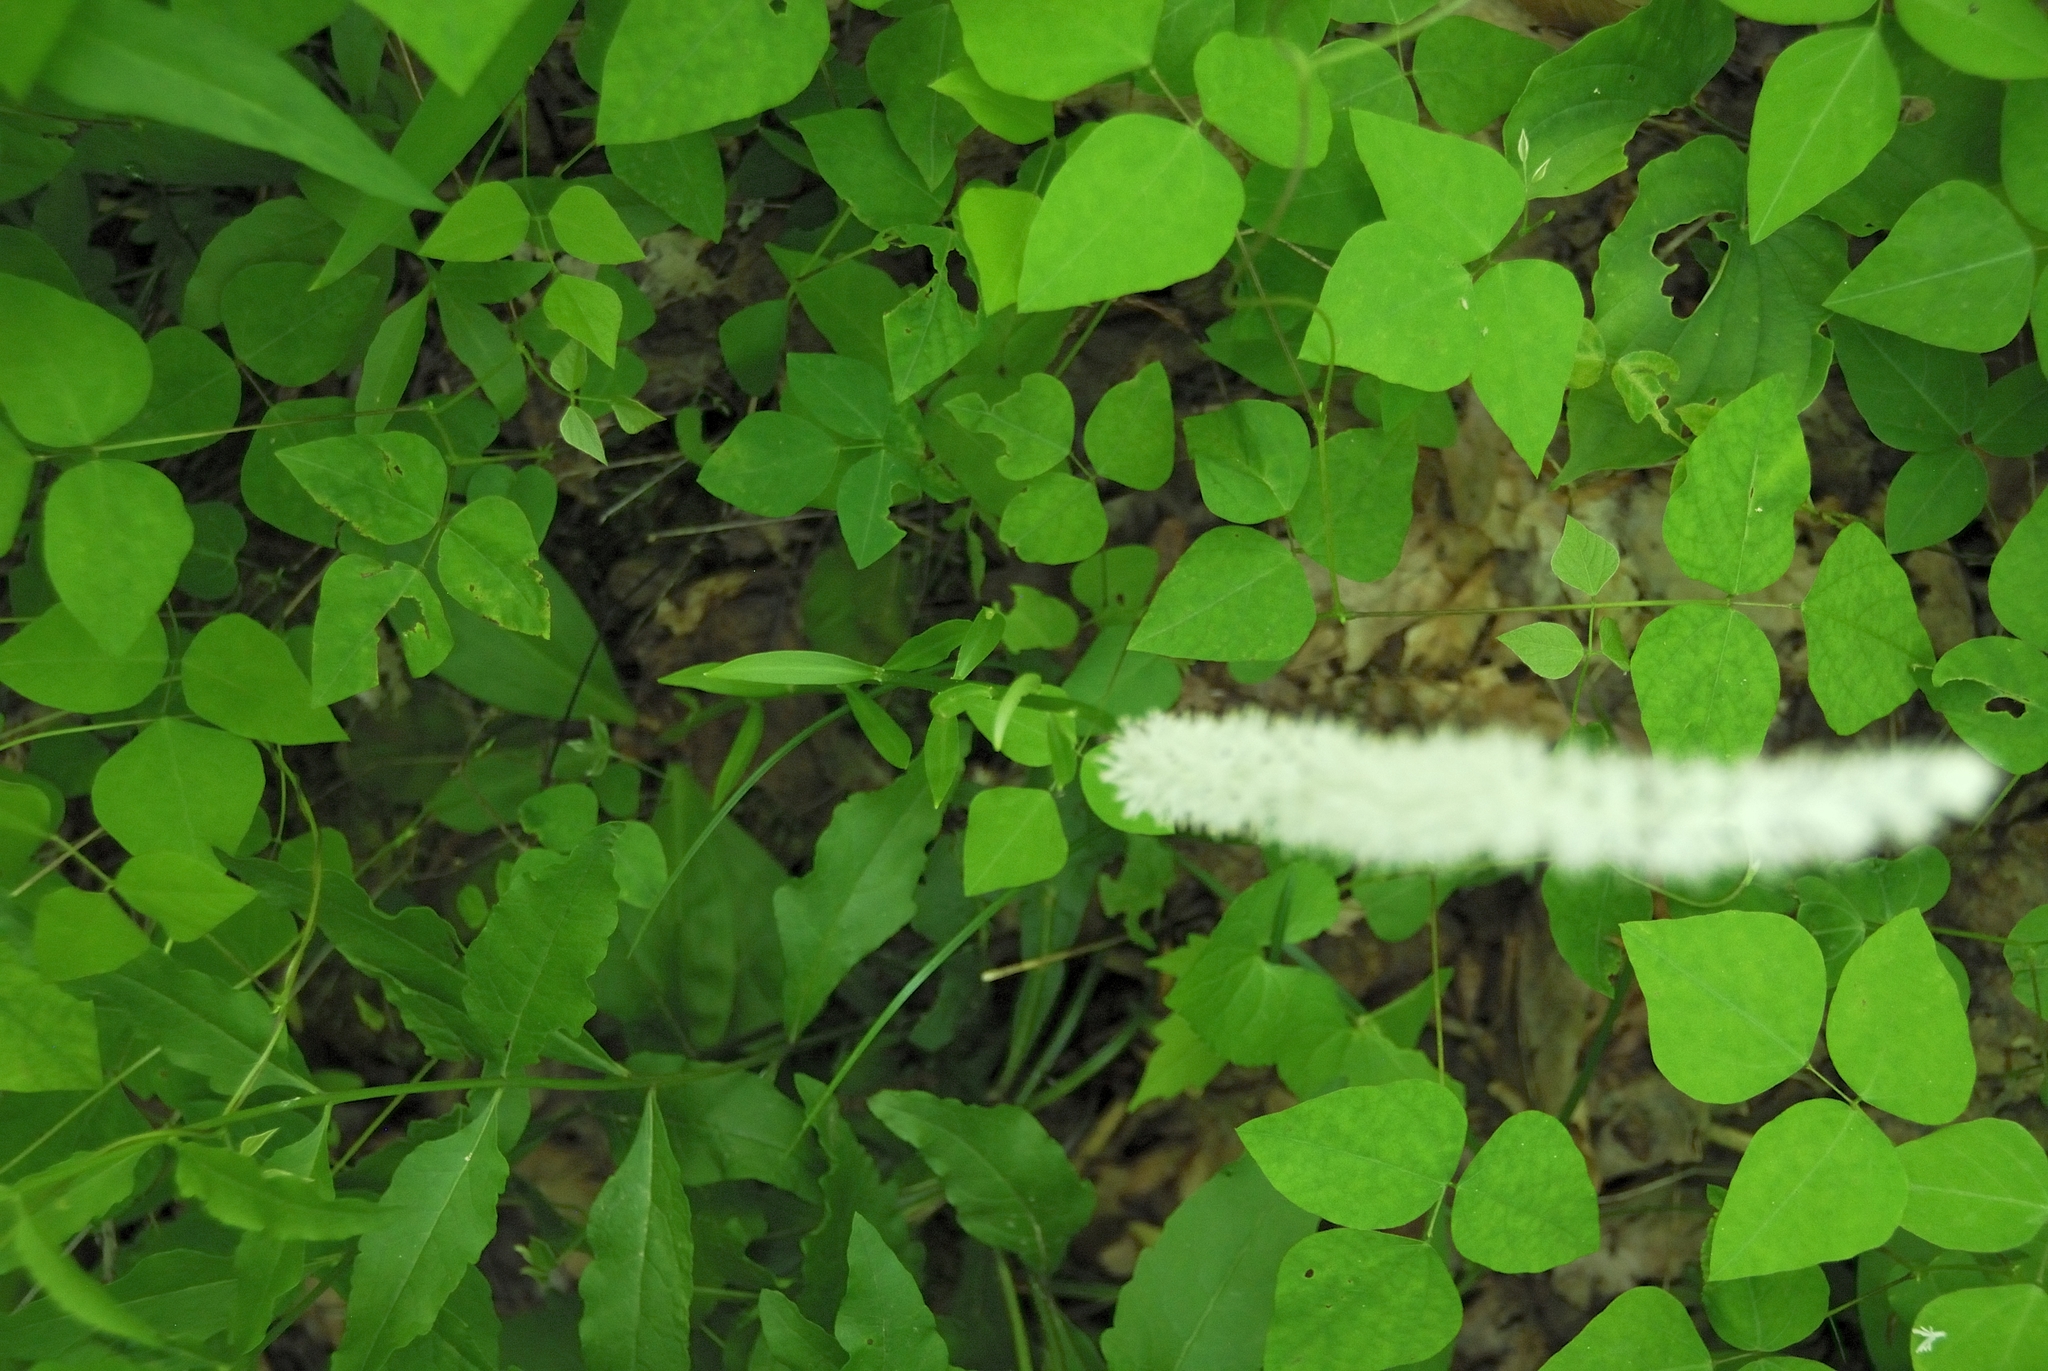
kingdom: Plantae
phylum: Tracheophyta
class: Liliopsida
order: Liliales
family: Melanthiaceae
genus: Chamaelirium
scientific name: Chamaelirium luteum
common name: Fairy-wand
